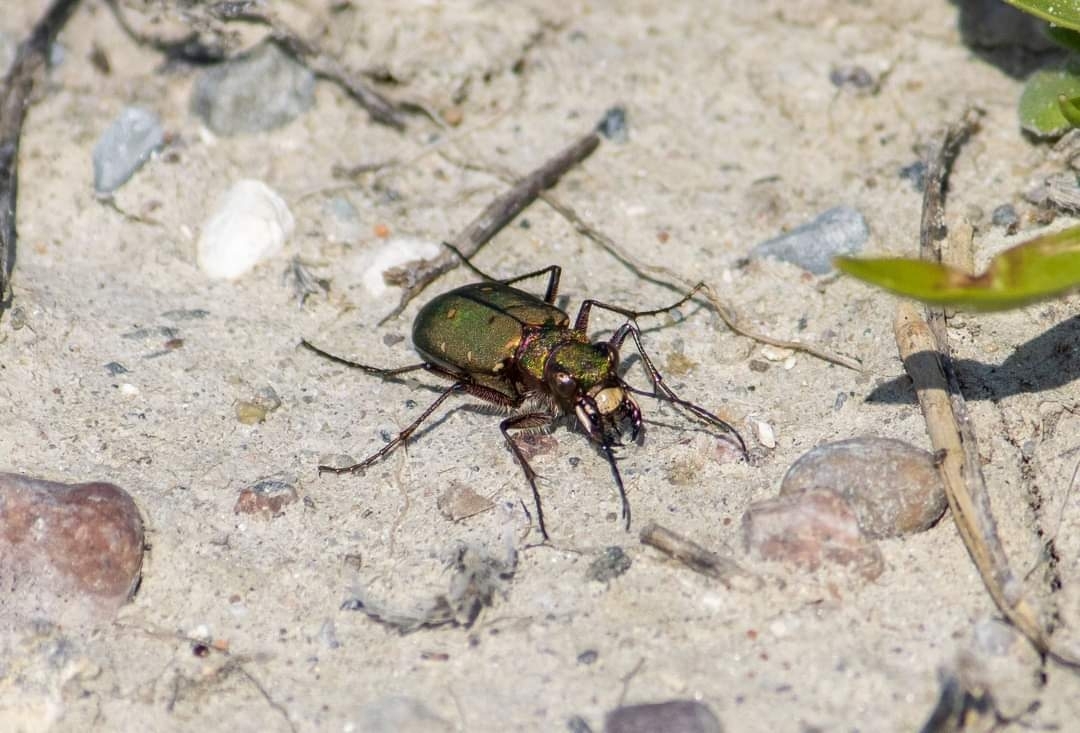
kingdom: Animalia
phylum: Arthropoda
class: Insecta
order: Coleoptera
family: Carabidae
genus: Cicindela
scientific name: Cicindela campestris
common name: Common tiger beetle
